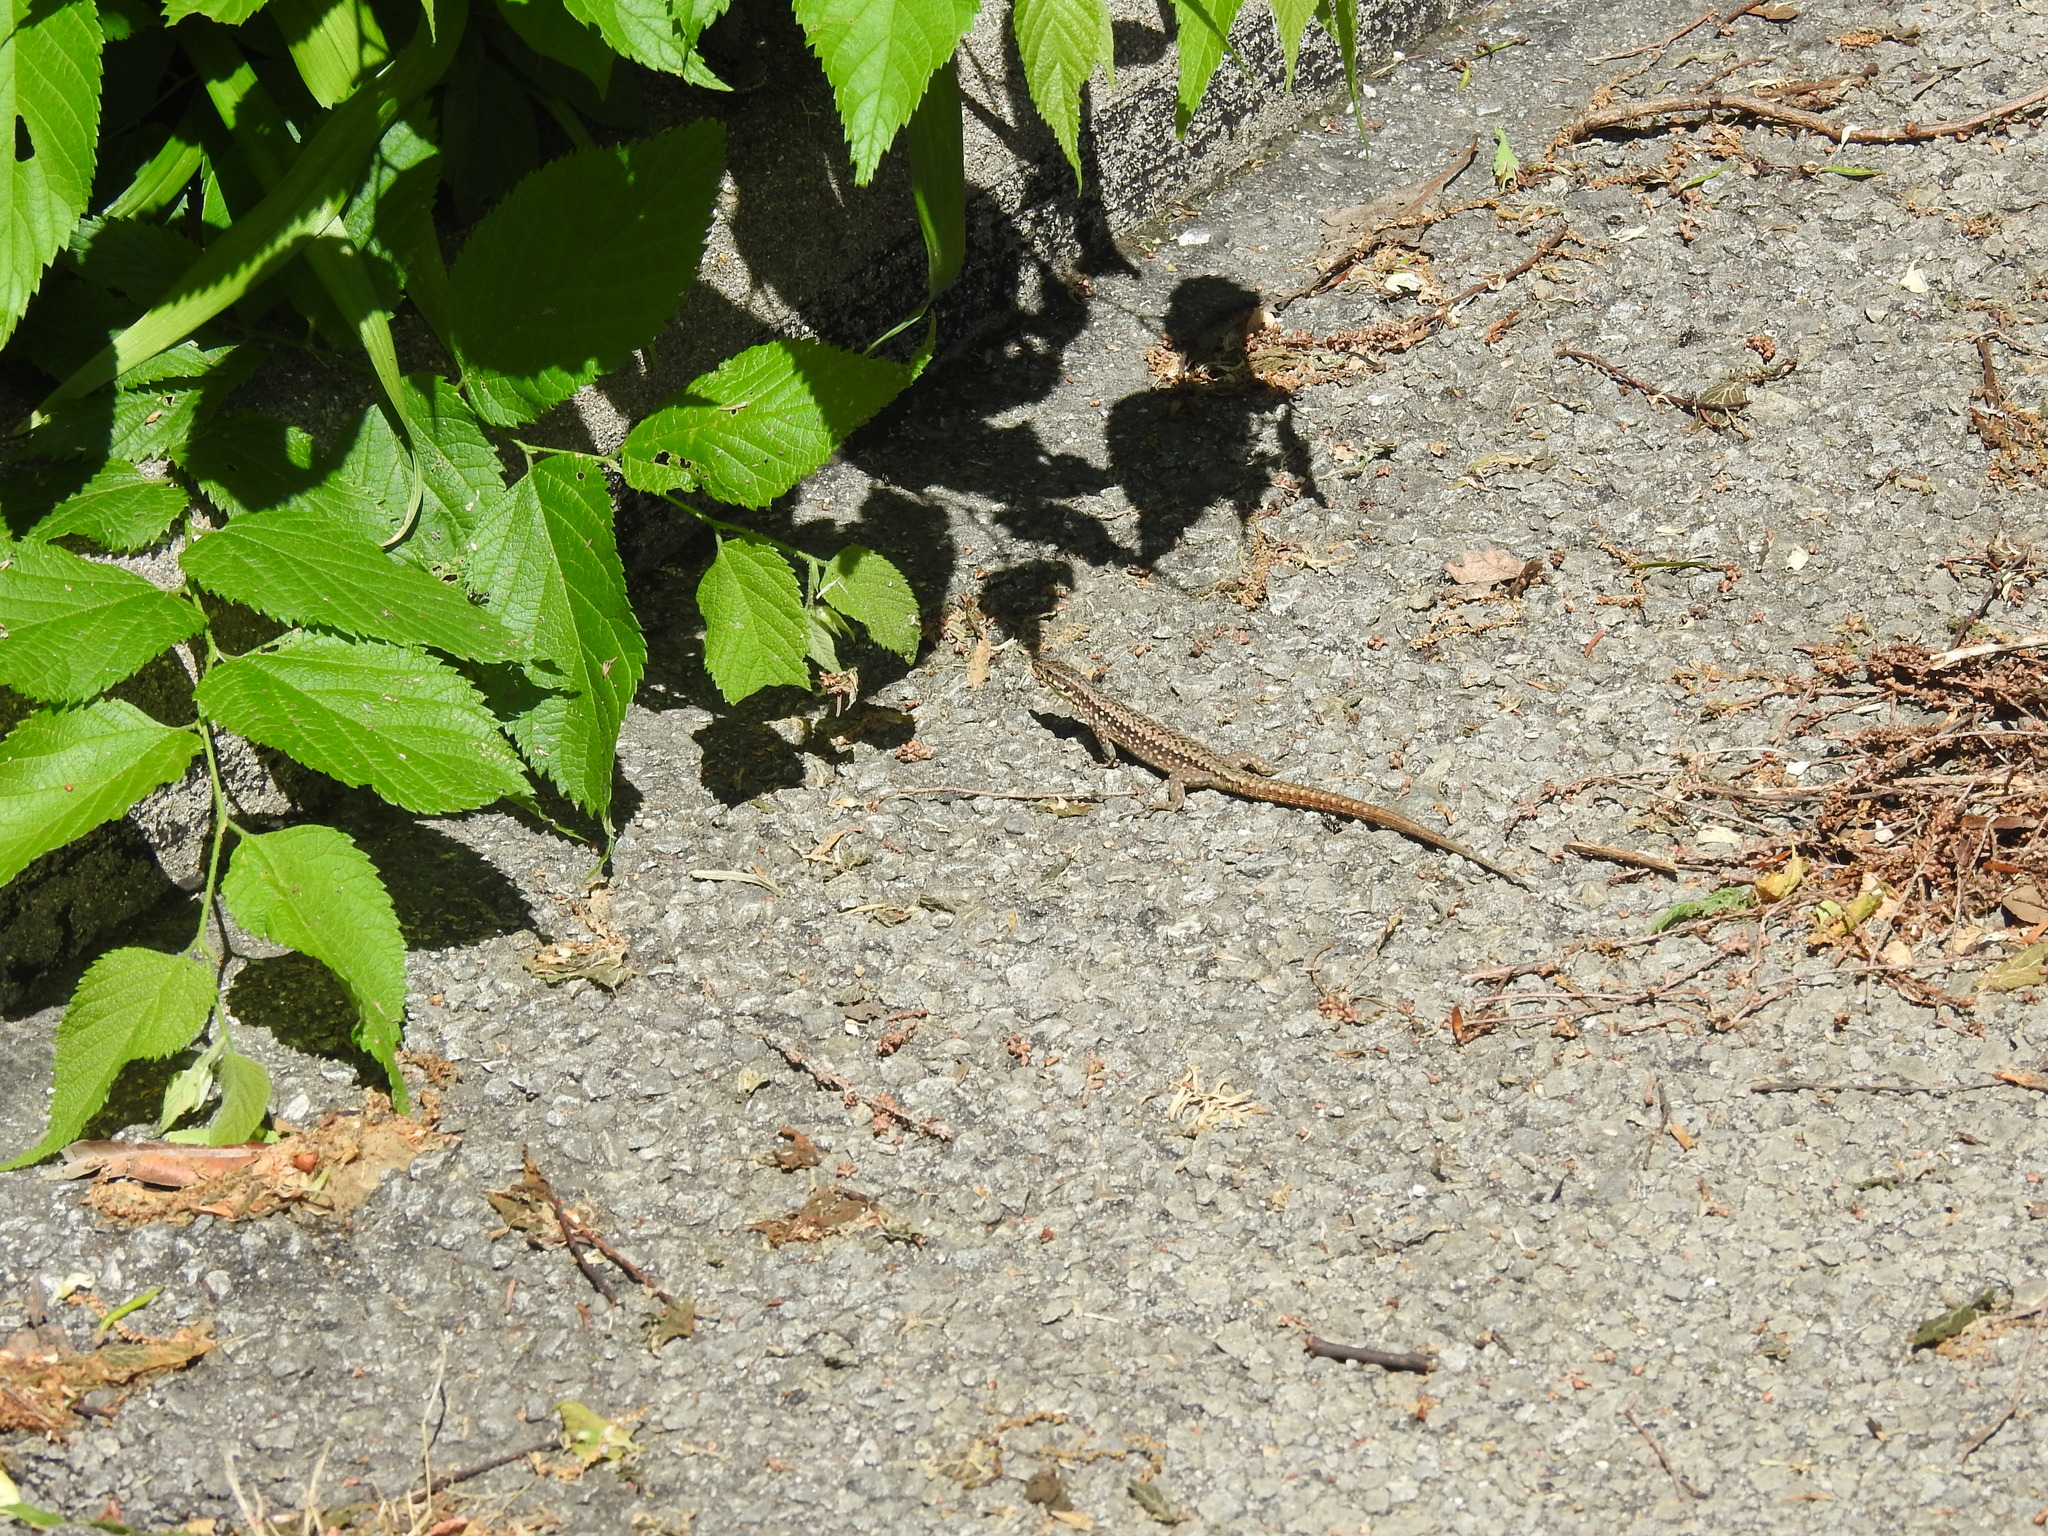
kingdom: Animalia
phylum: Chordata
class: Squamata
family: Lacertidae
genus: Podarcis
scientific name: Podarcis muralis
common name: Common wall lizard
